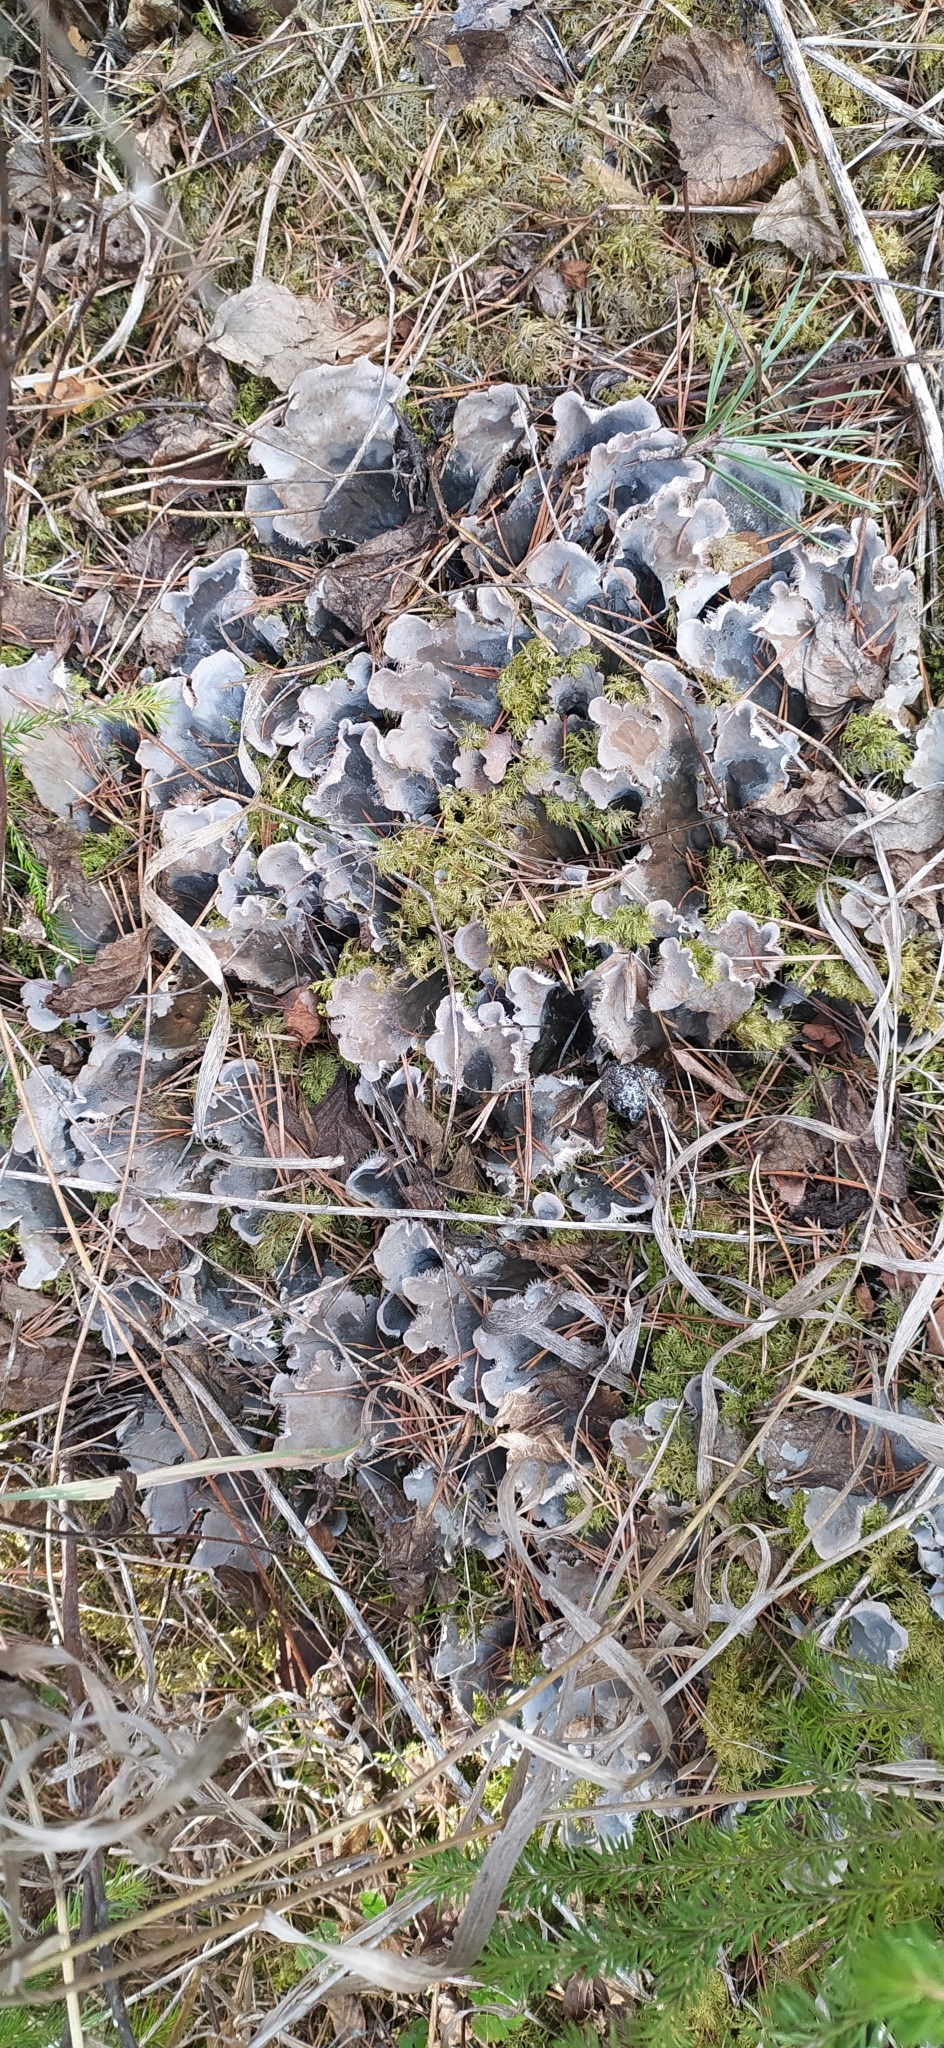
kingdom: Fungi
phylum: Ascomycota
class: Lecanoromycetes
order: Peltigerales
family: Peltigeraceae
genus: Peltigera
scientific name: Peltigera canina
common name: Dog pelt lichen
